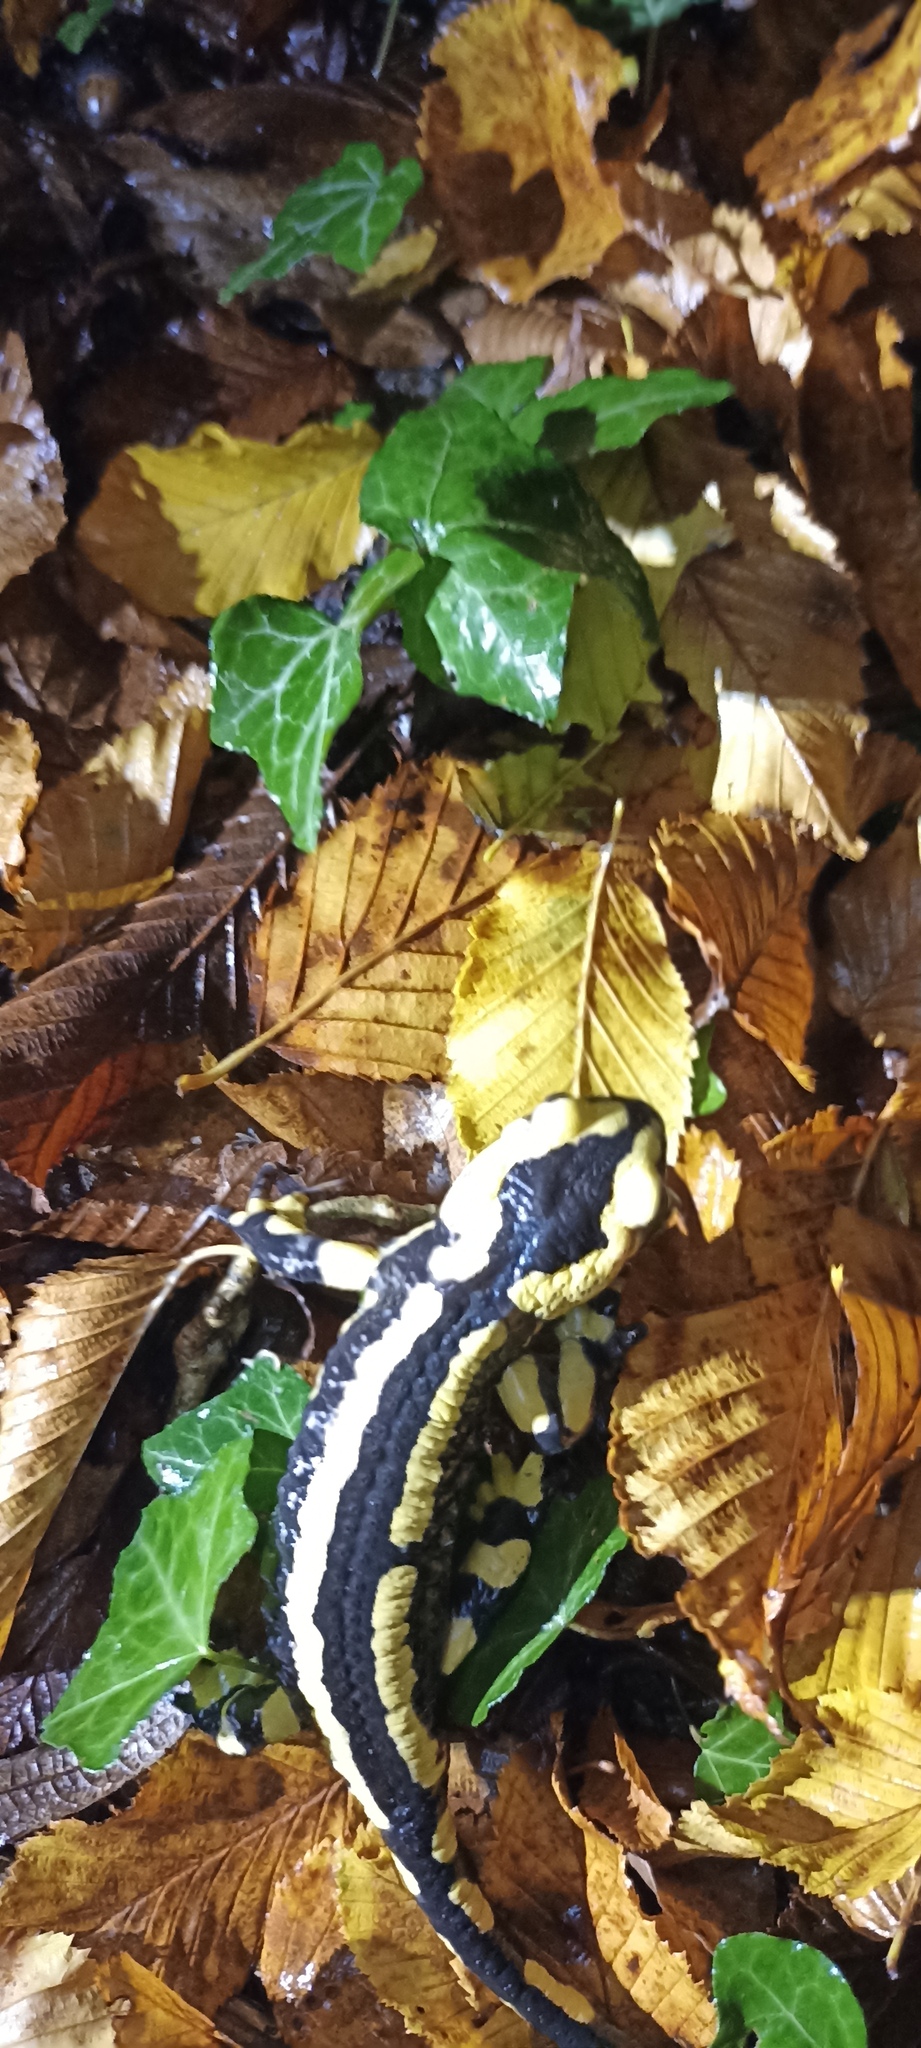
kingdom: Animalia
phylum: Chordata
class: Amphibia
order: Caudata
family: Salamandridae
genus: Salamandra
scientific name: Salamandra salamandra
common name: Fire salamander
